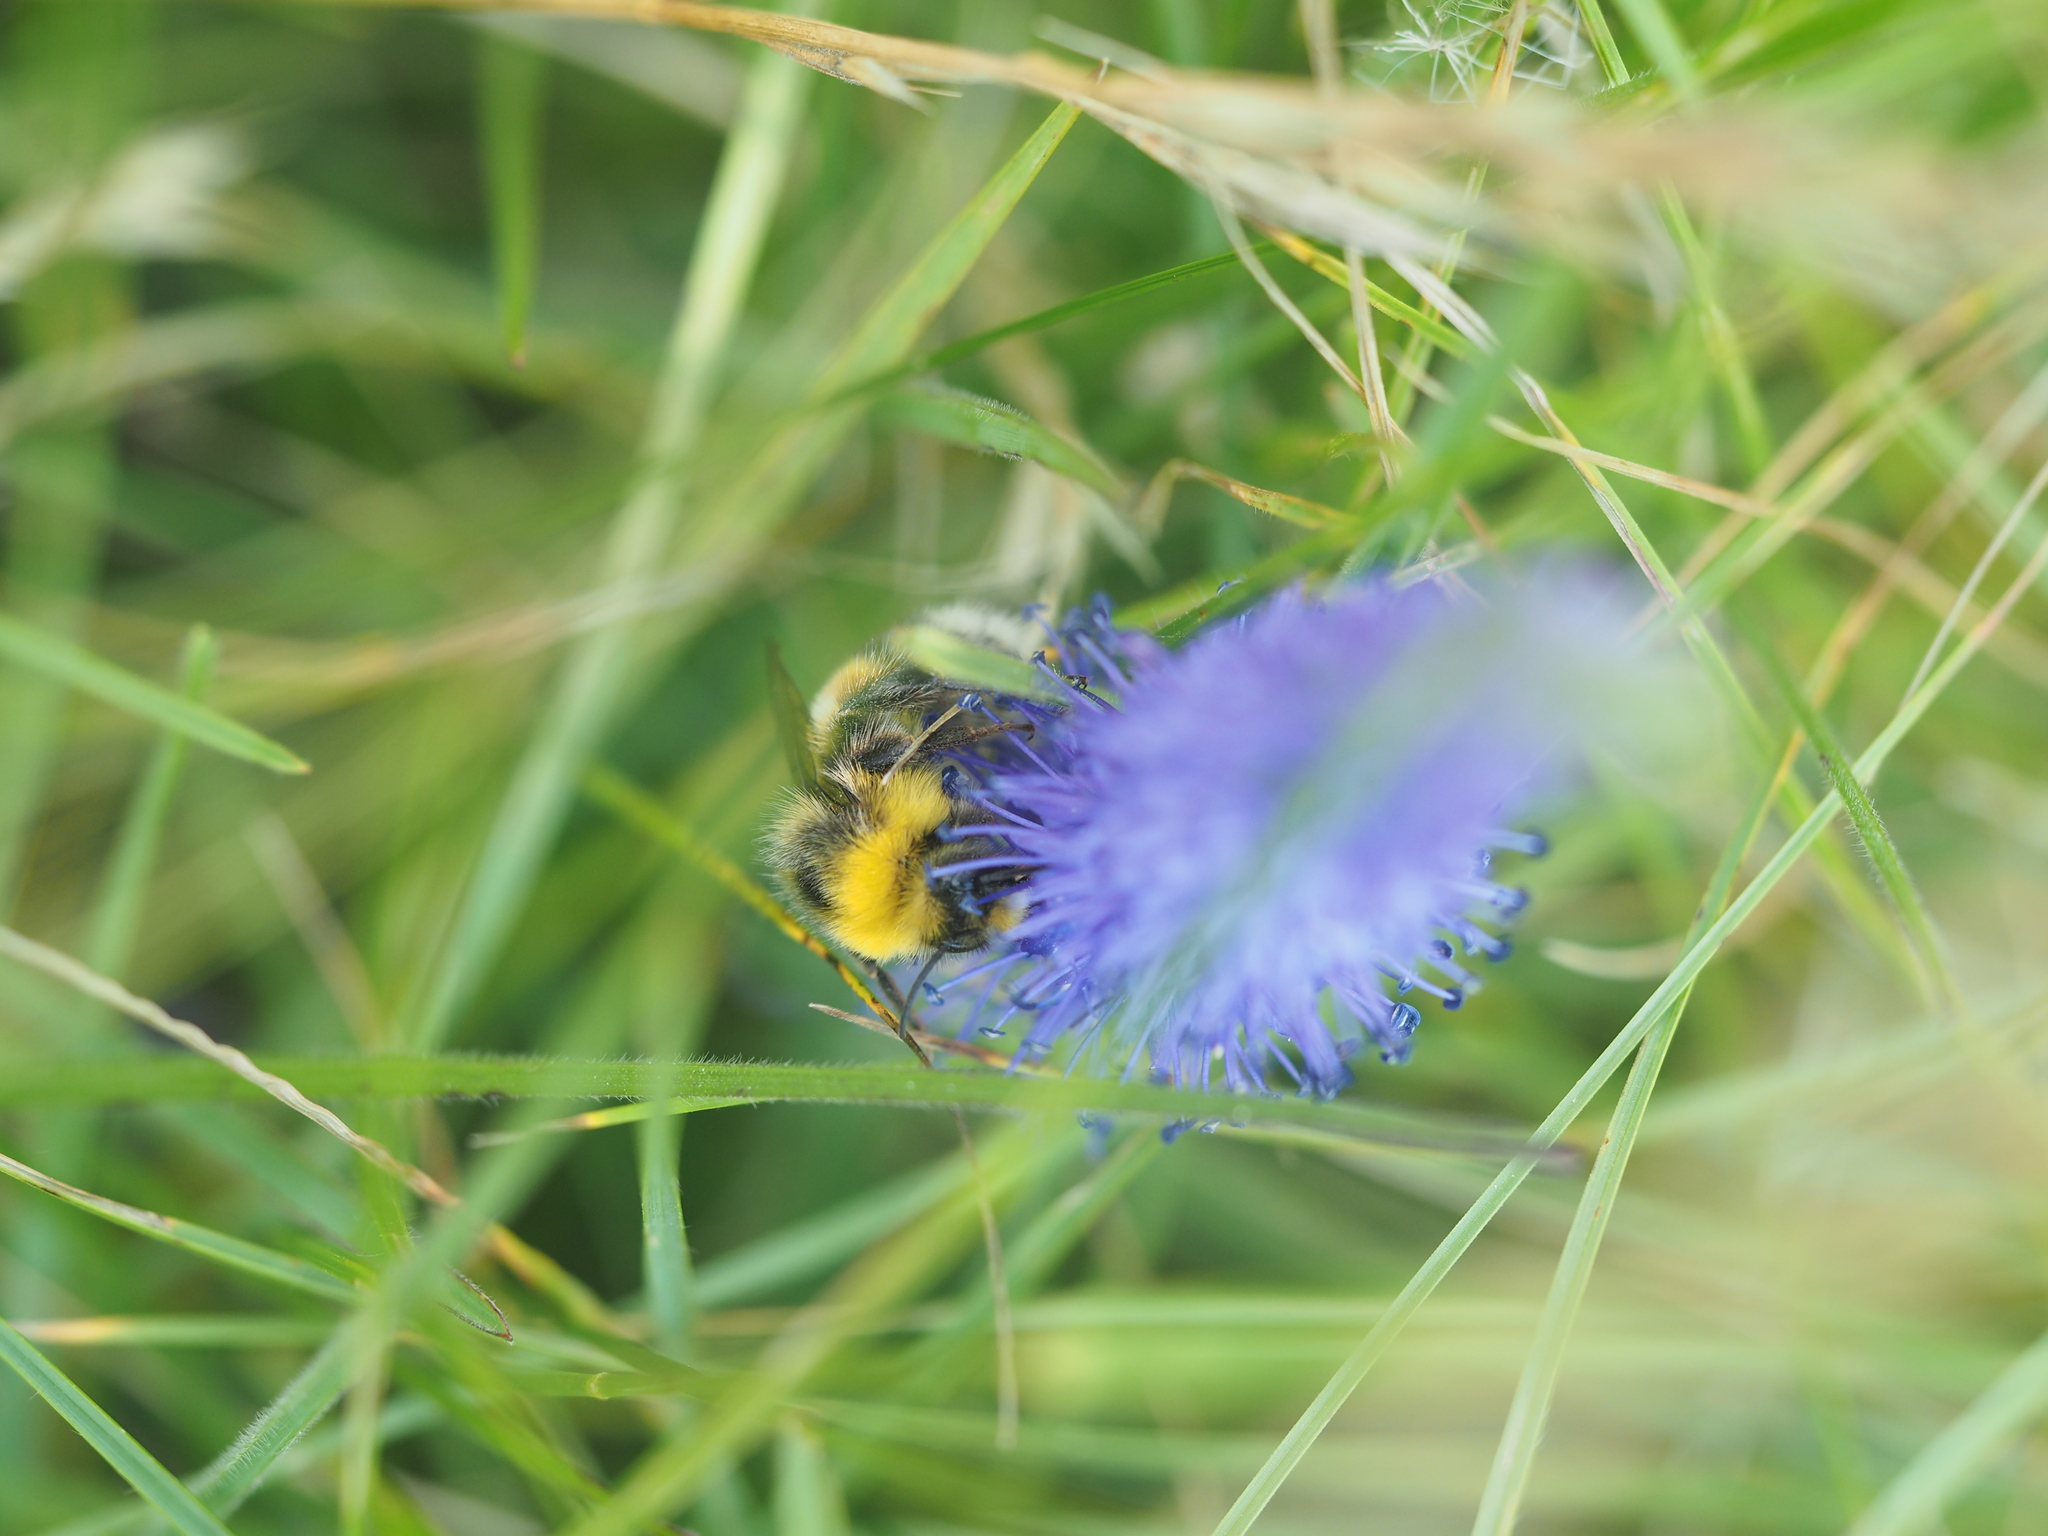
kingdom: Animalia
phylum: Arthropoda
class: Insecta
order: Hymenoptera
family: Apidae
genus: Bombus
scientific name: Bombus lucorum
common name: White-tailed bumblebee
